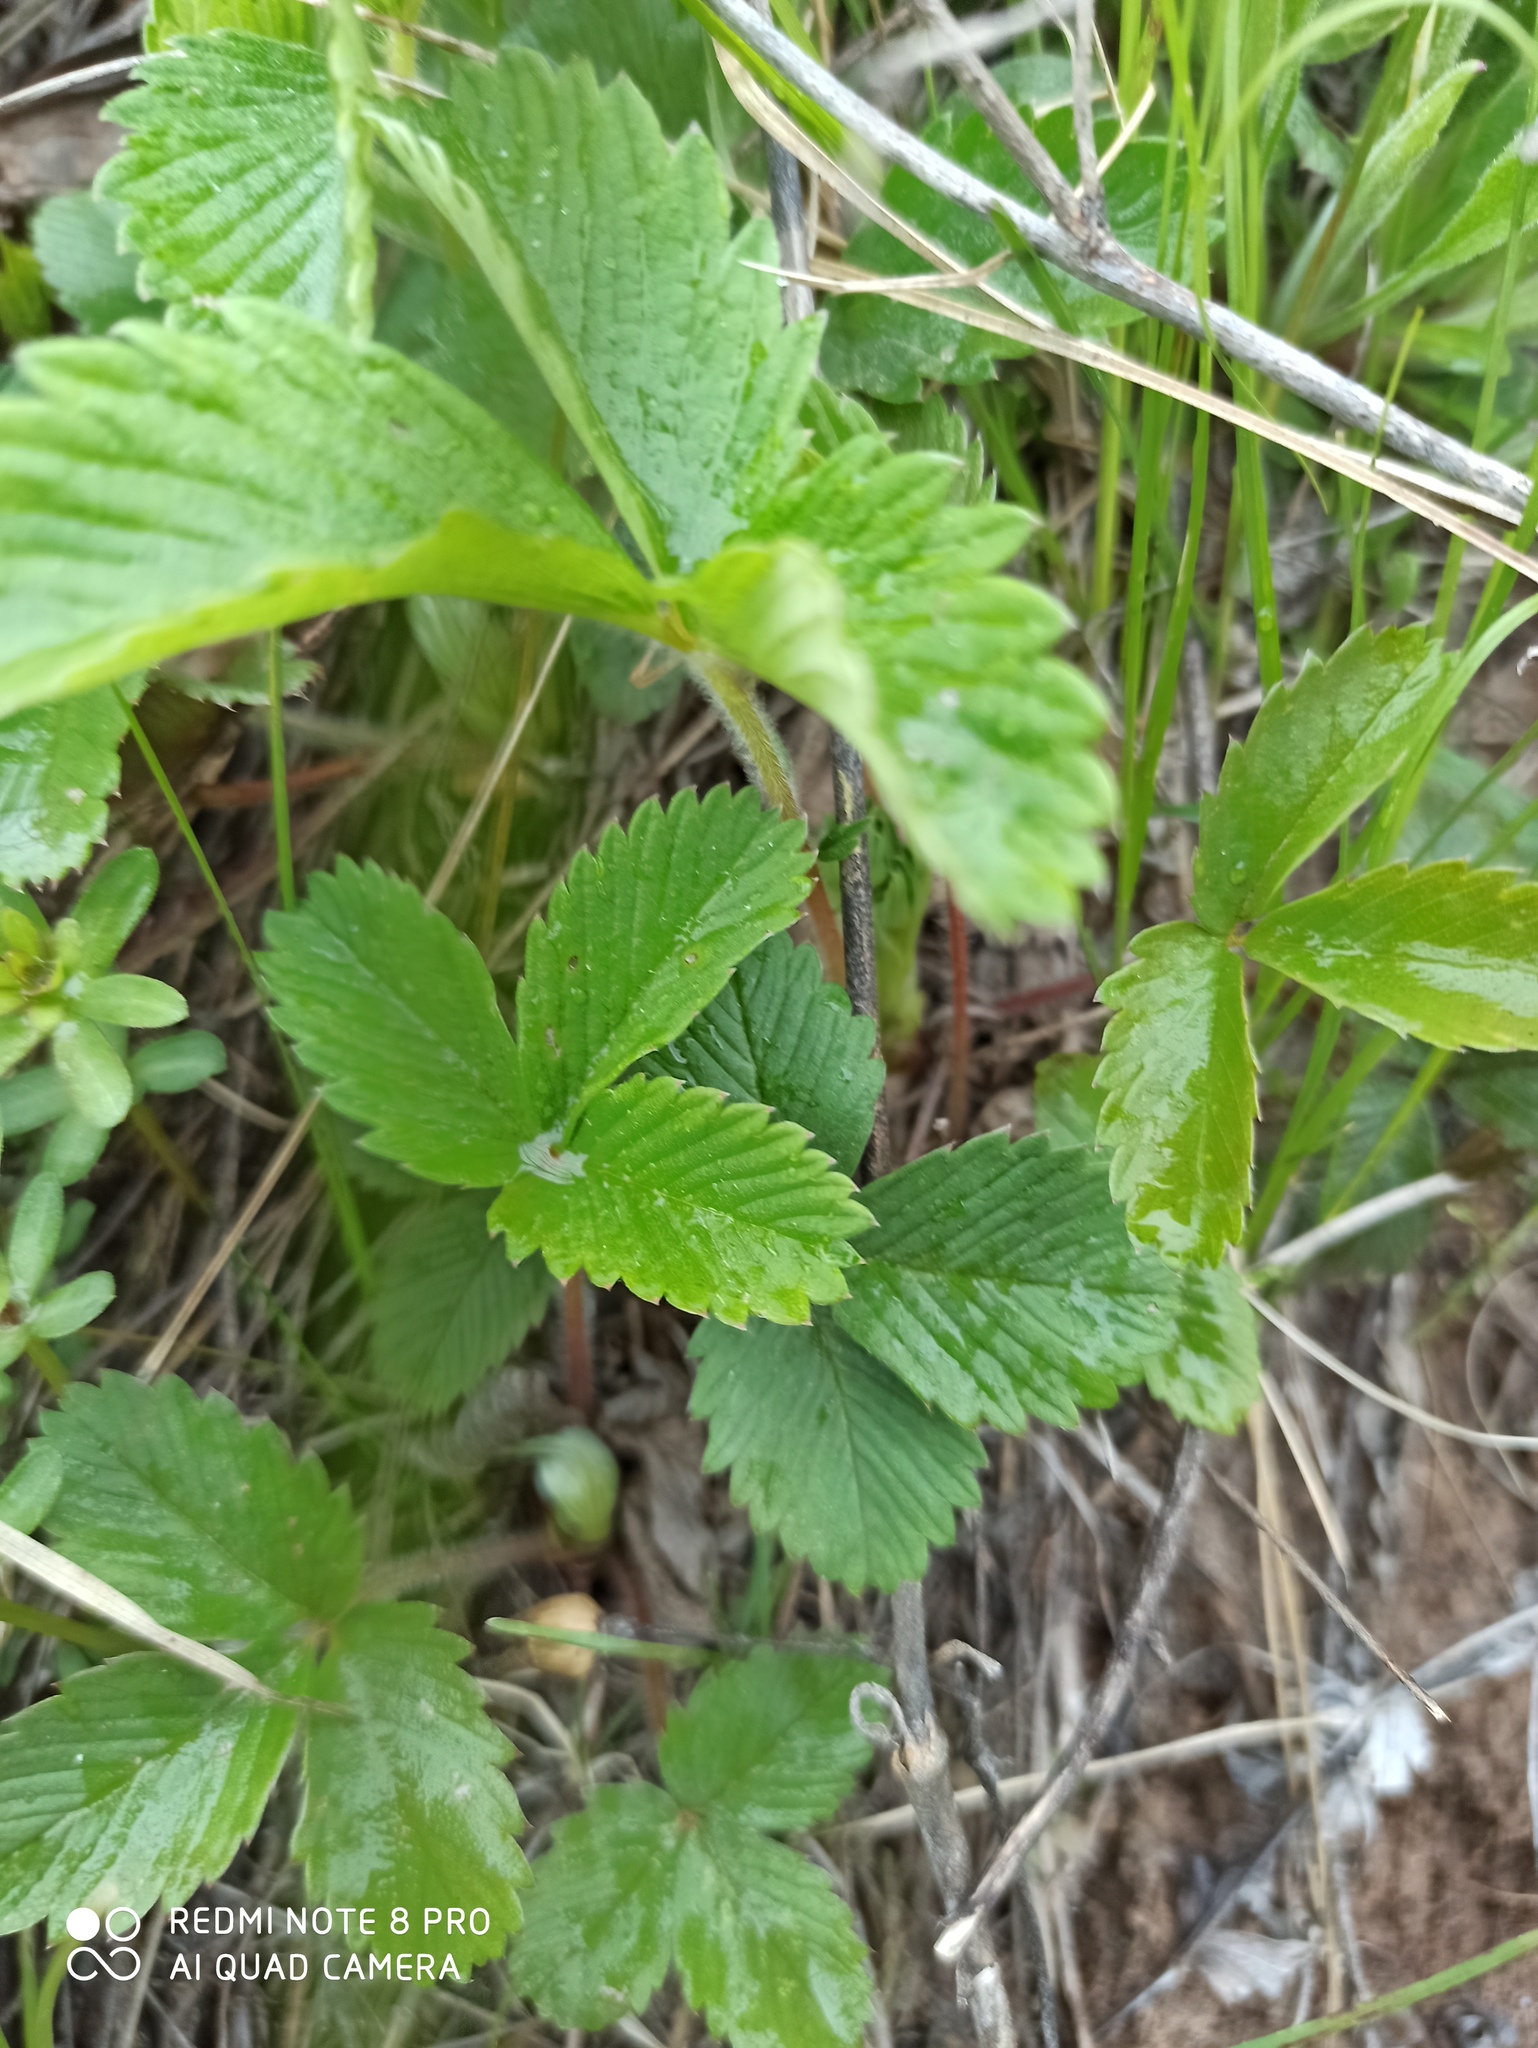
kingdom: Plantae
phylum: Tracheophyta
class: Magnoliopsida
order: Rosales
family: Rosaceae
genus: Fragaria
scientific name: Fragaria viridis
